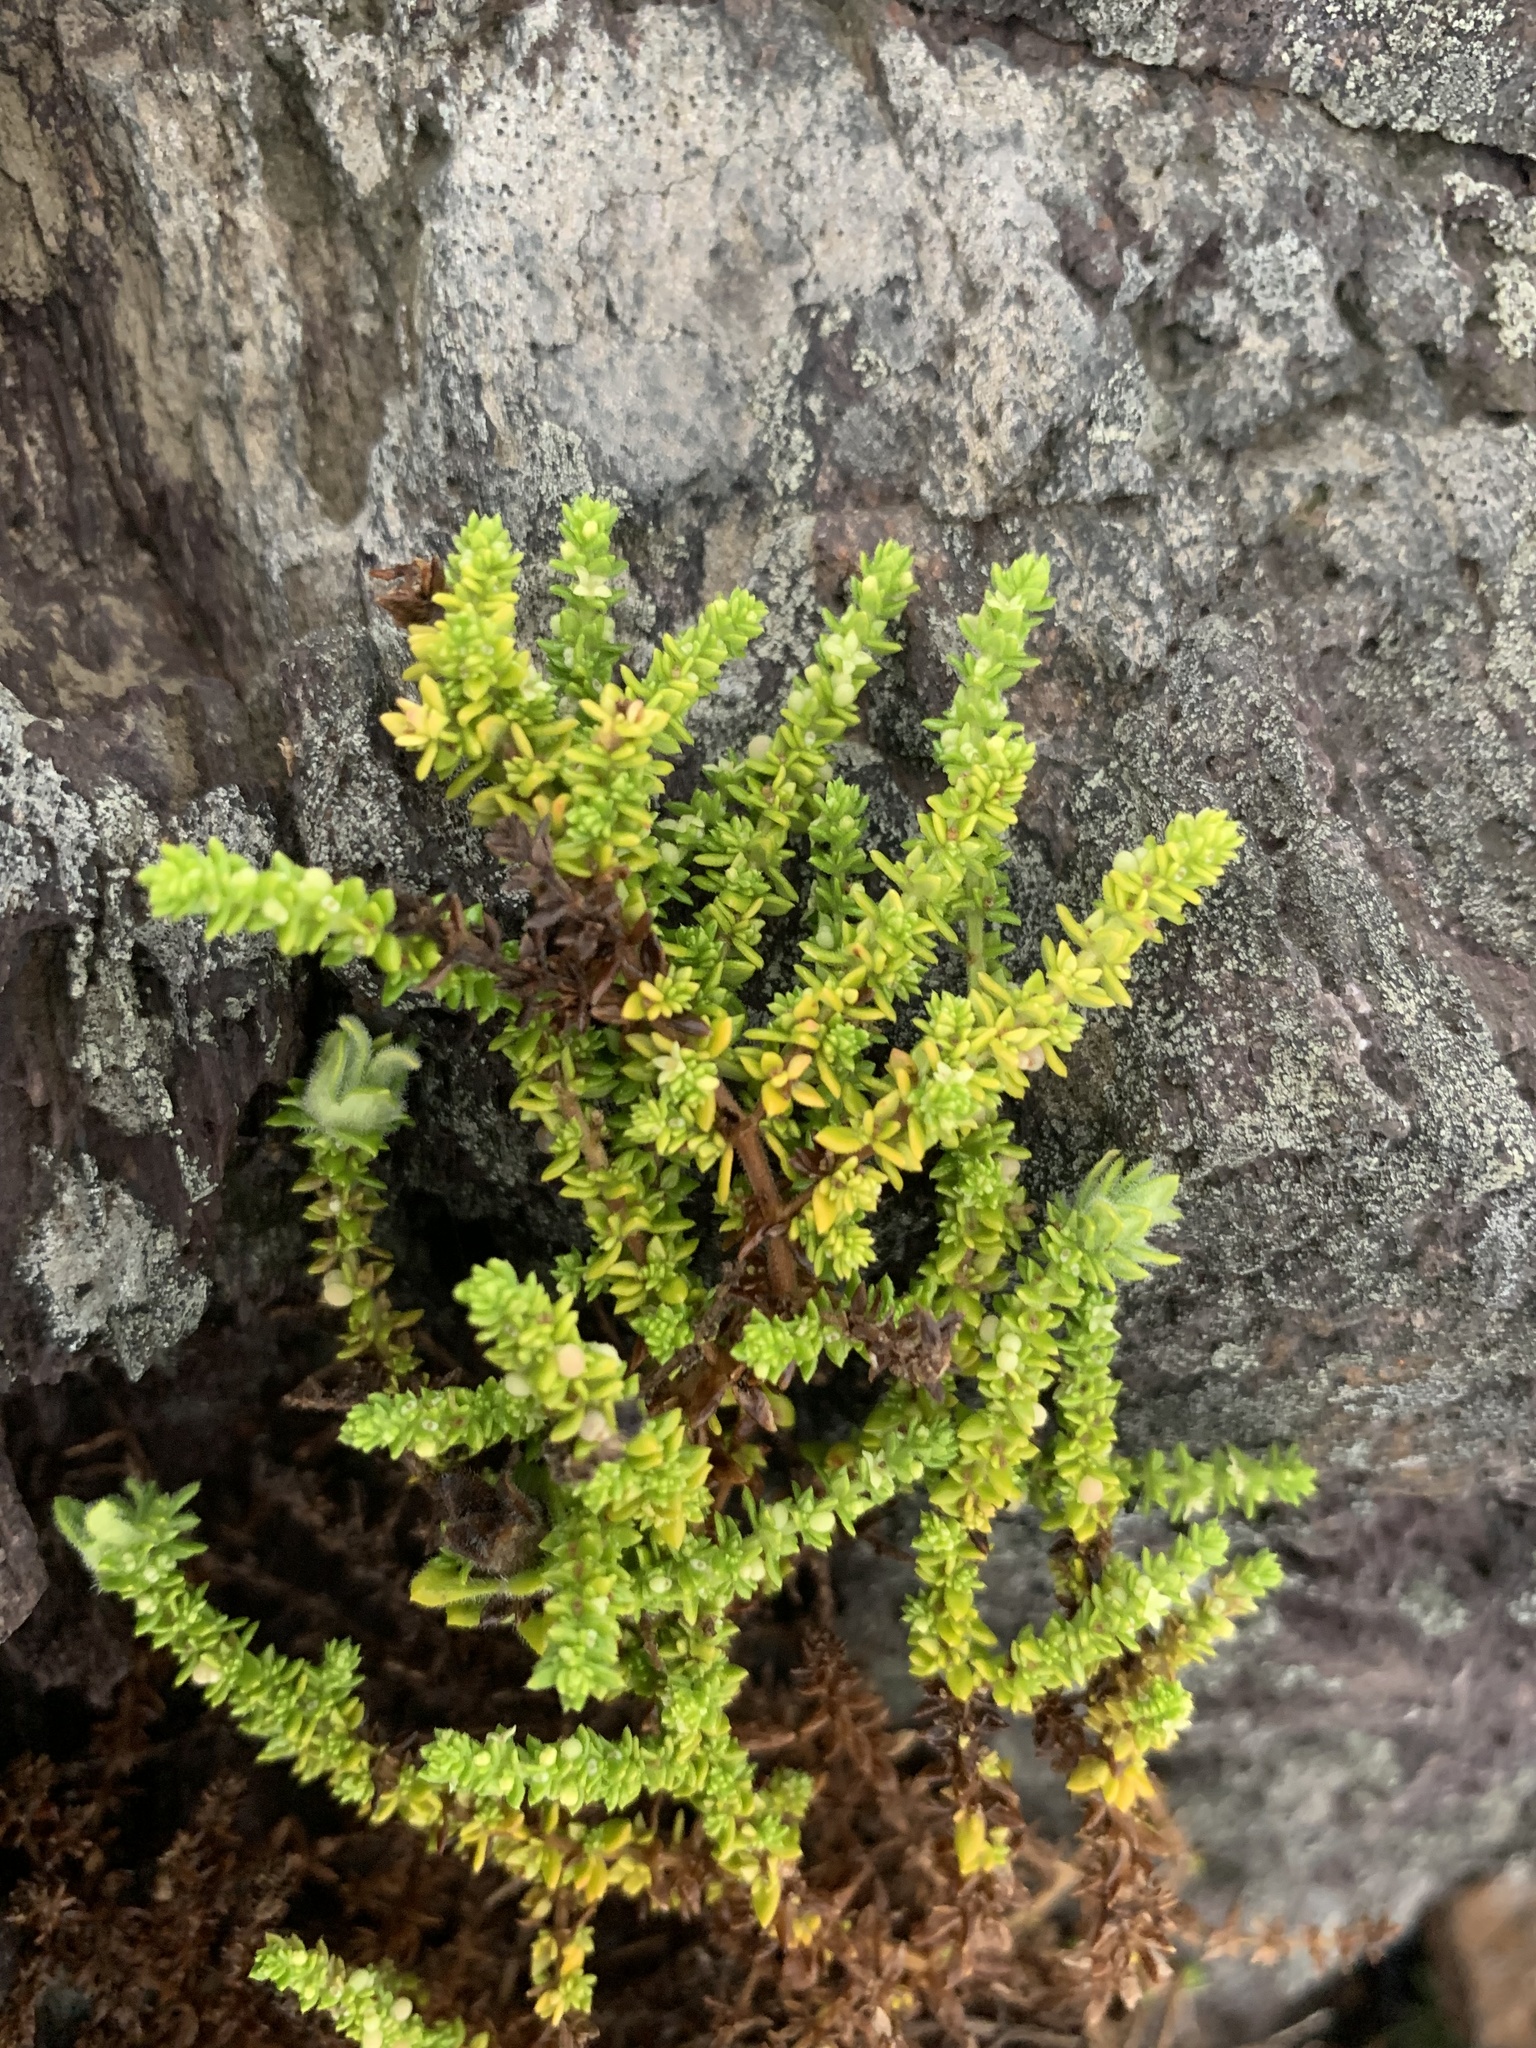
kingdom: Plantae
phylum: Tracheophyta
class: Magnoliopsida
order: Gentianales
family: Rubiaceae
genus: Galium
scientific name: Galium ericoides
